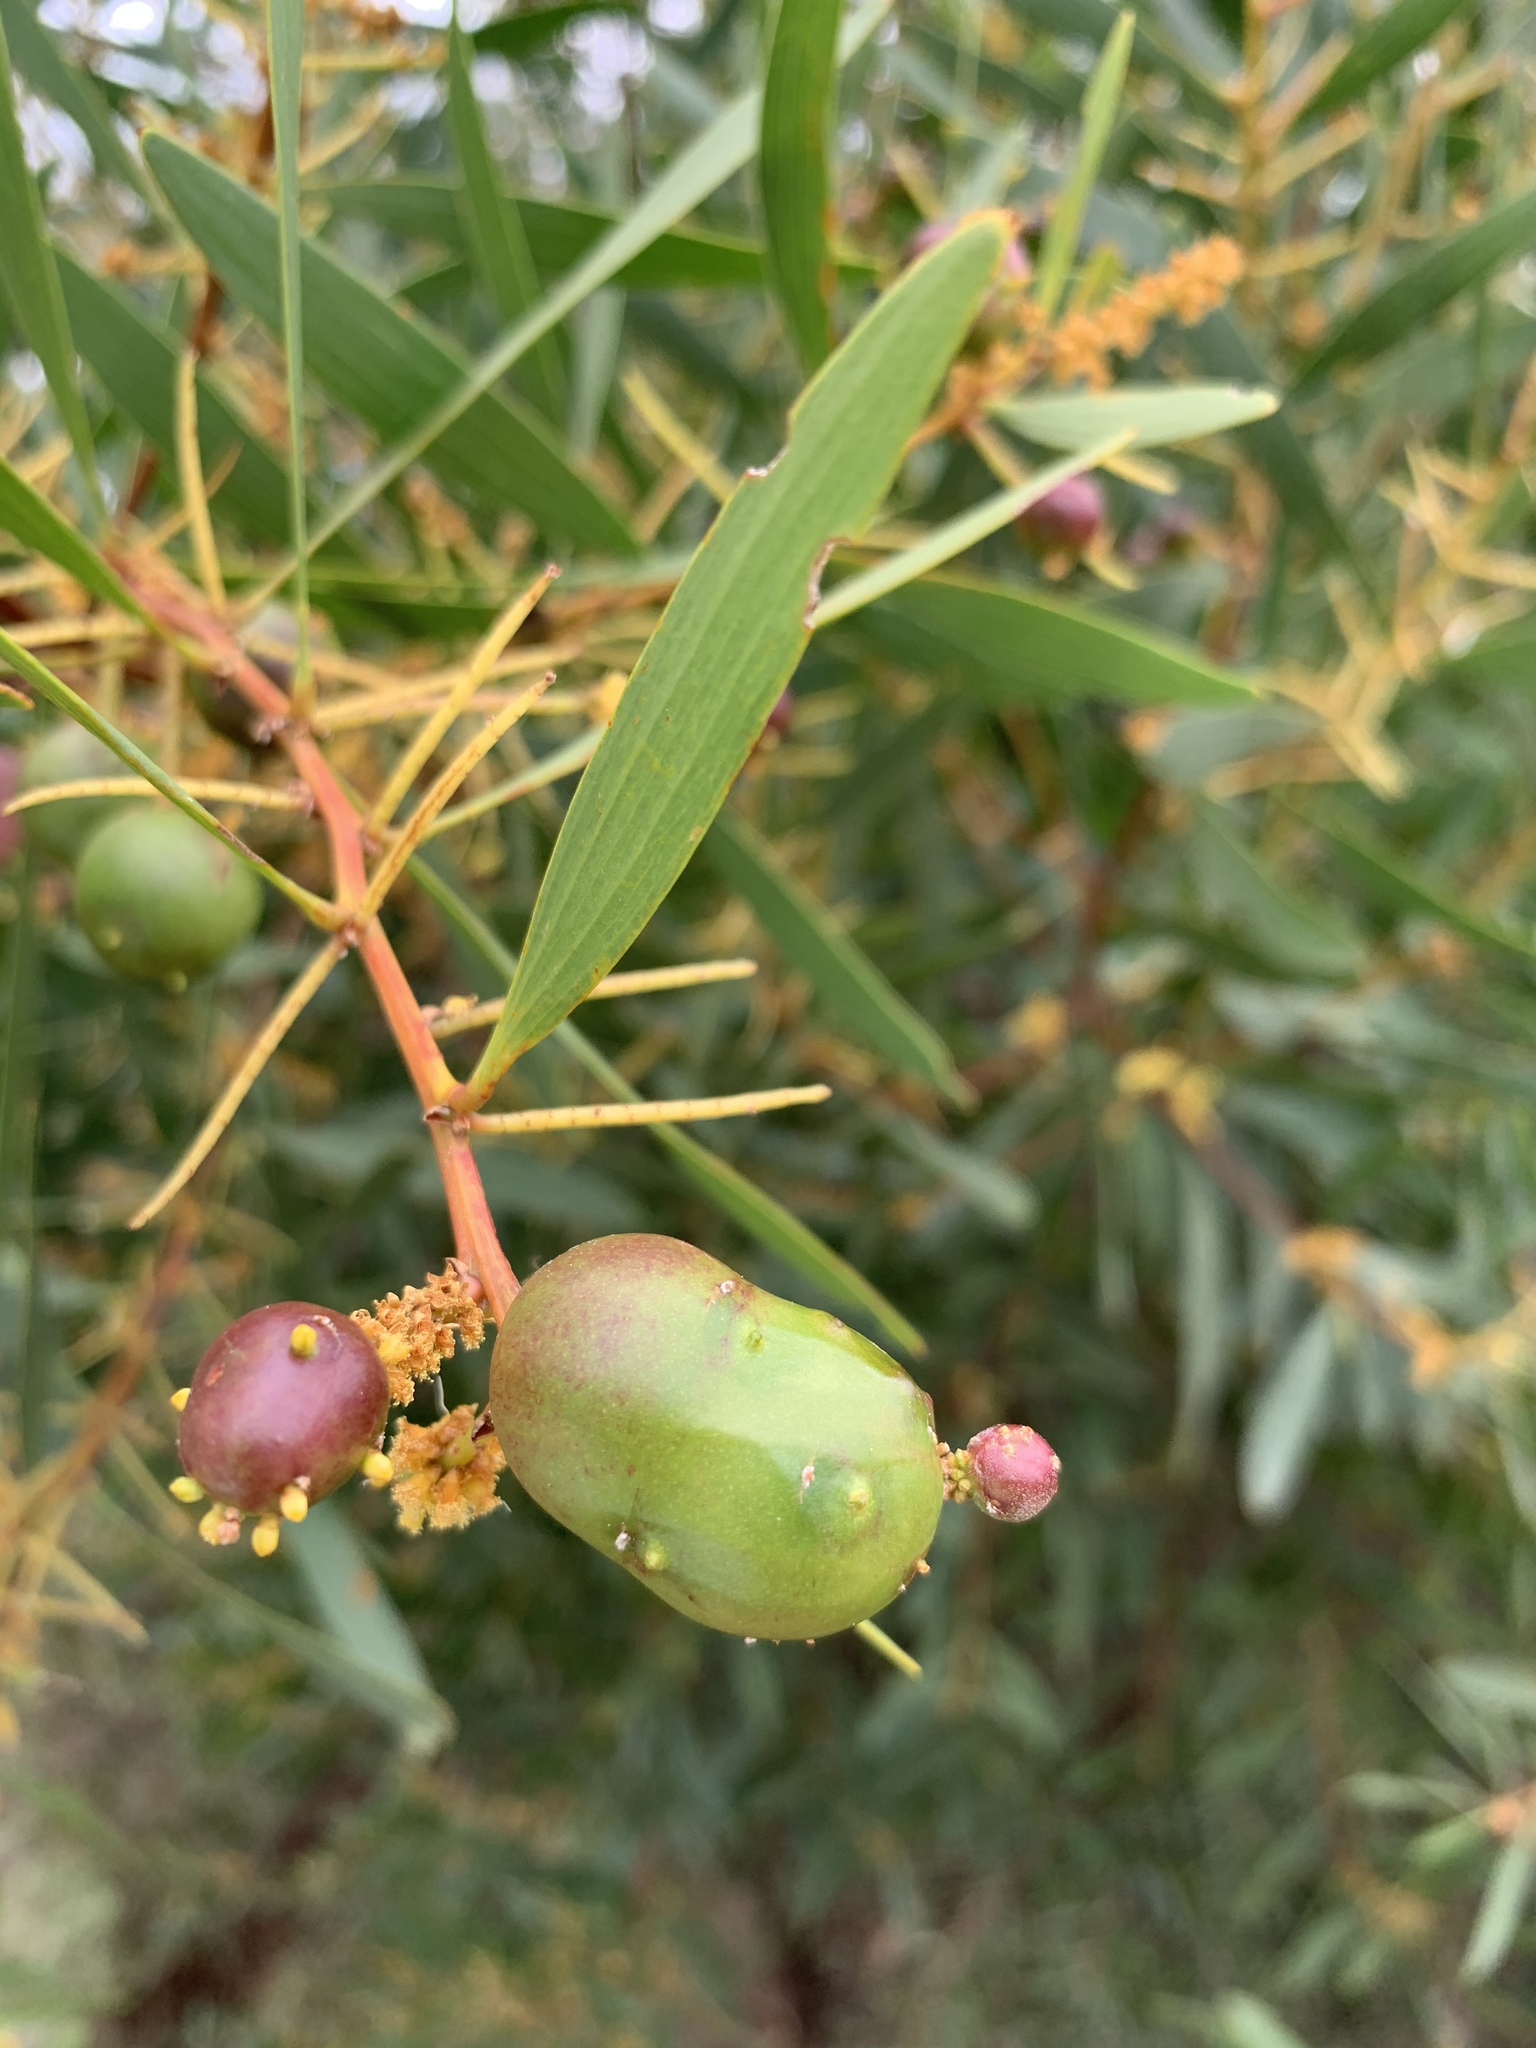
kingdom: Plantae
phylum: Tracheophyta
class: Magnoliopsida
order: Fabales
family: Fabaceae
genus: Acacia
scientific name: Acacia longifolia
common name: Sydney golden wattle
